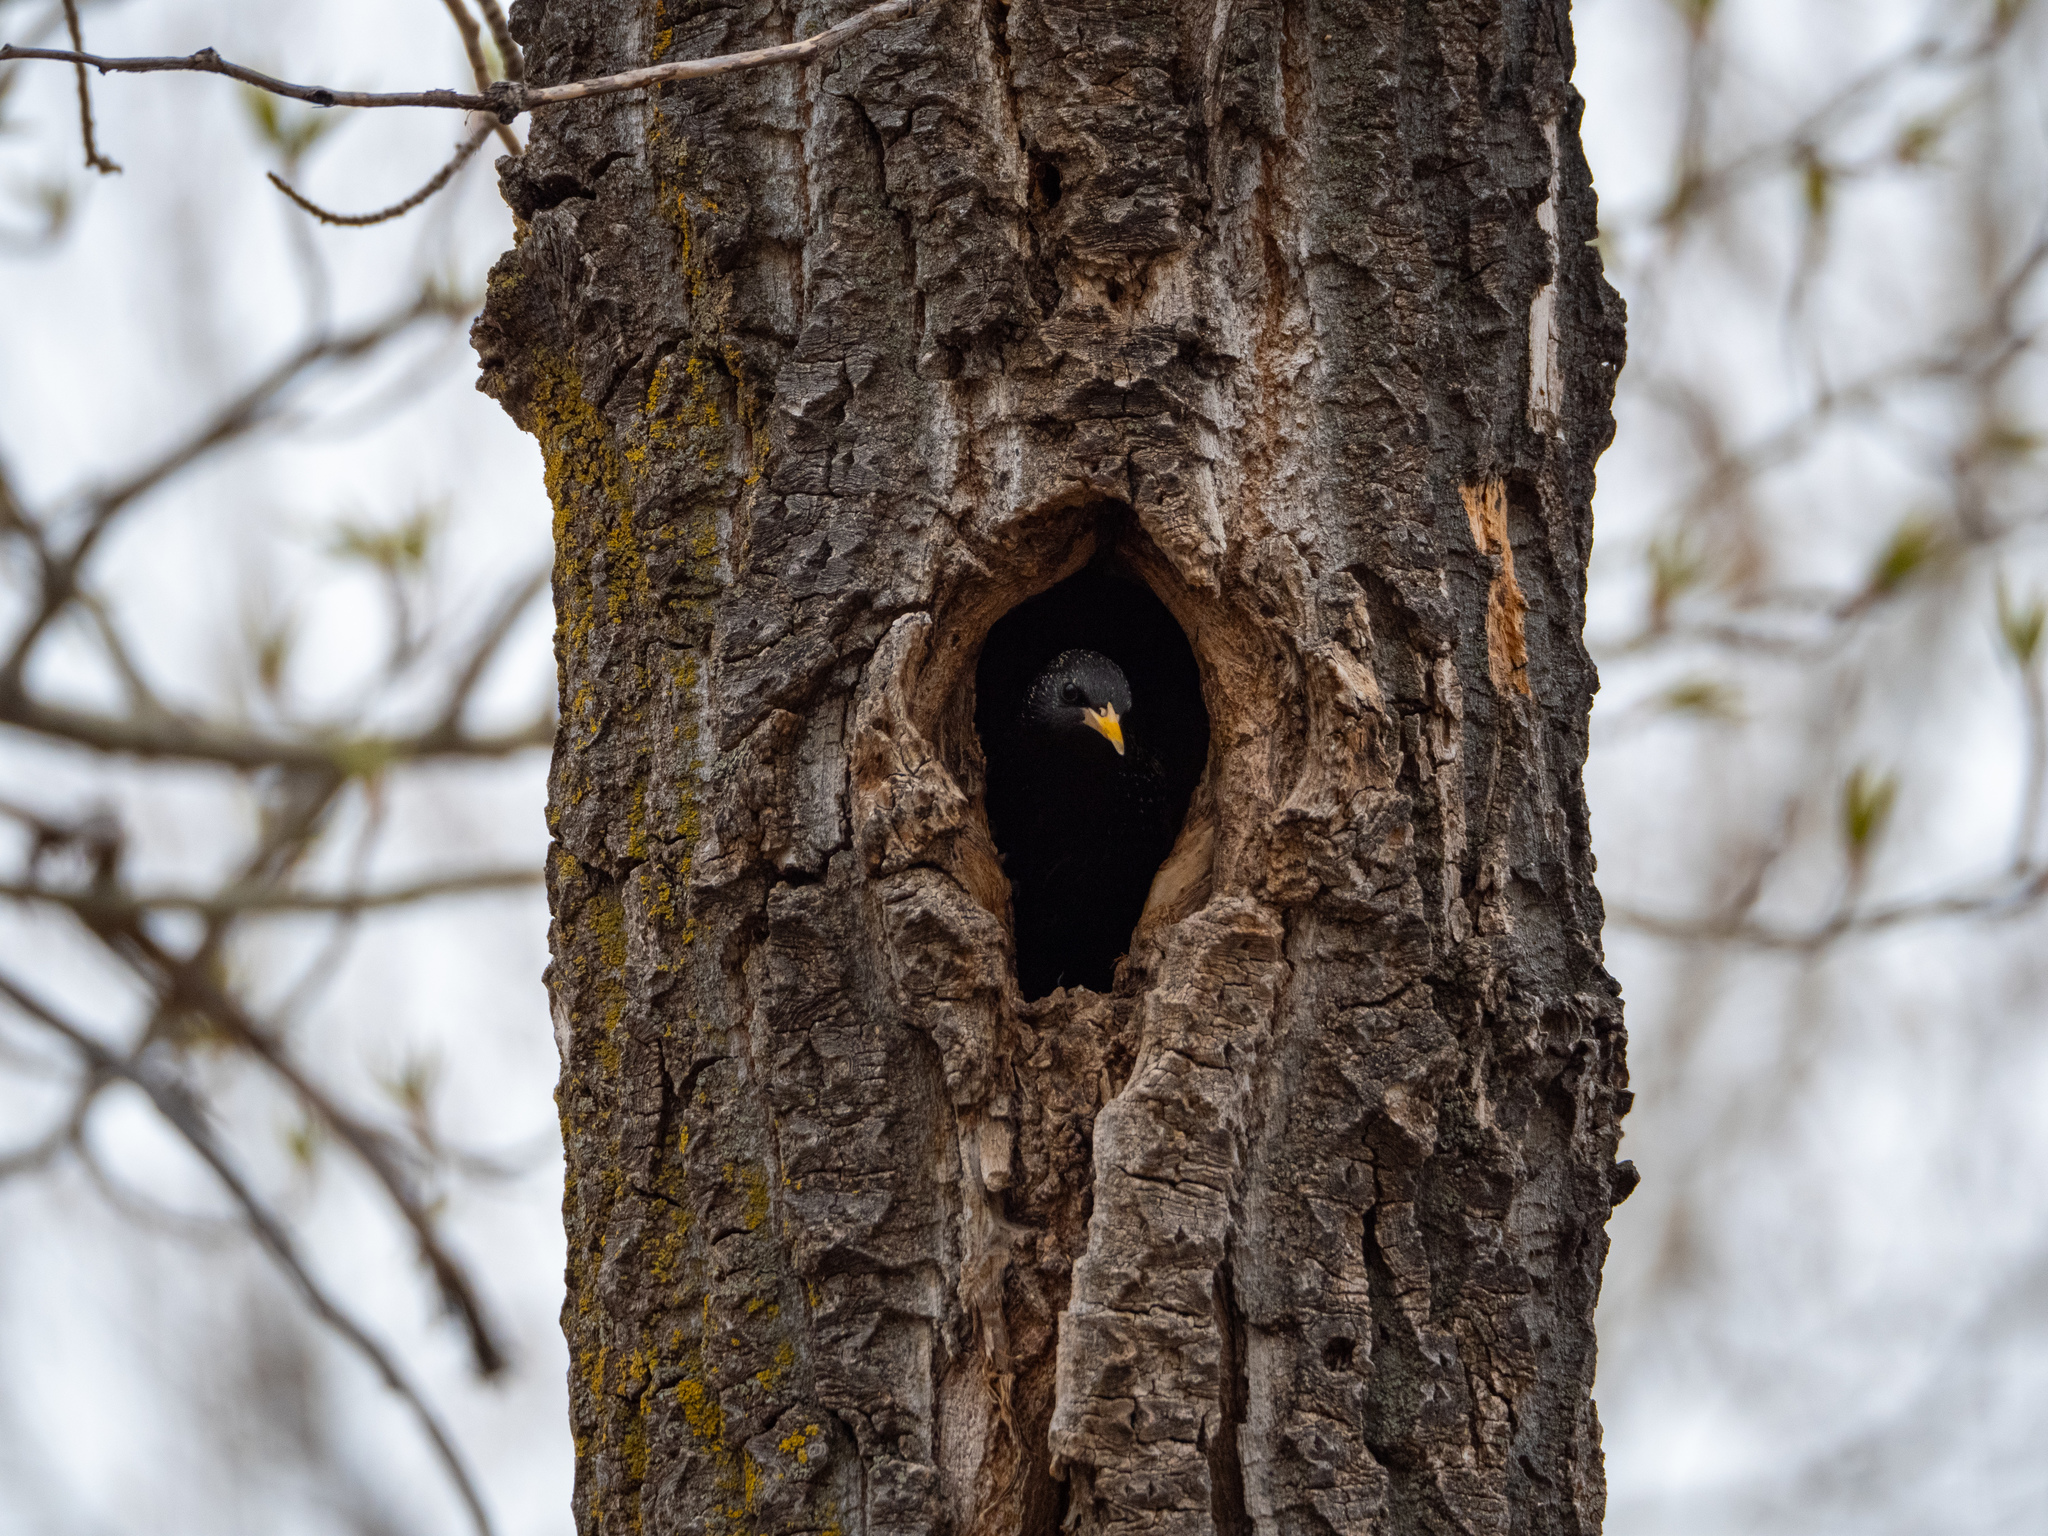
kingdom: Animalia
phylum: Chordata
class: Aves
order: Passeriformes
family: Sturnidae
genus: Sturnus
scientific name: Sturnus vulgaris
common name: Common starling
